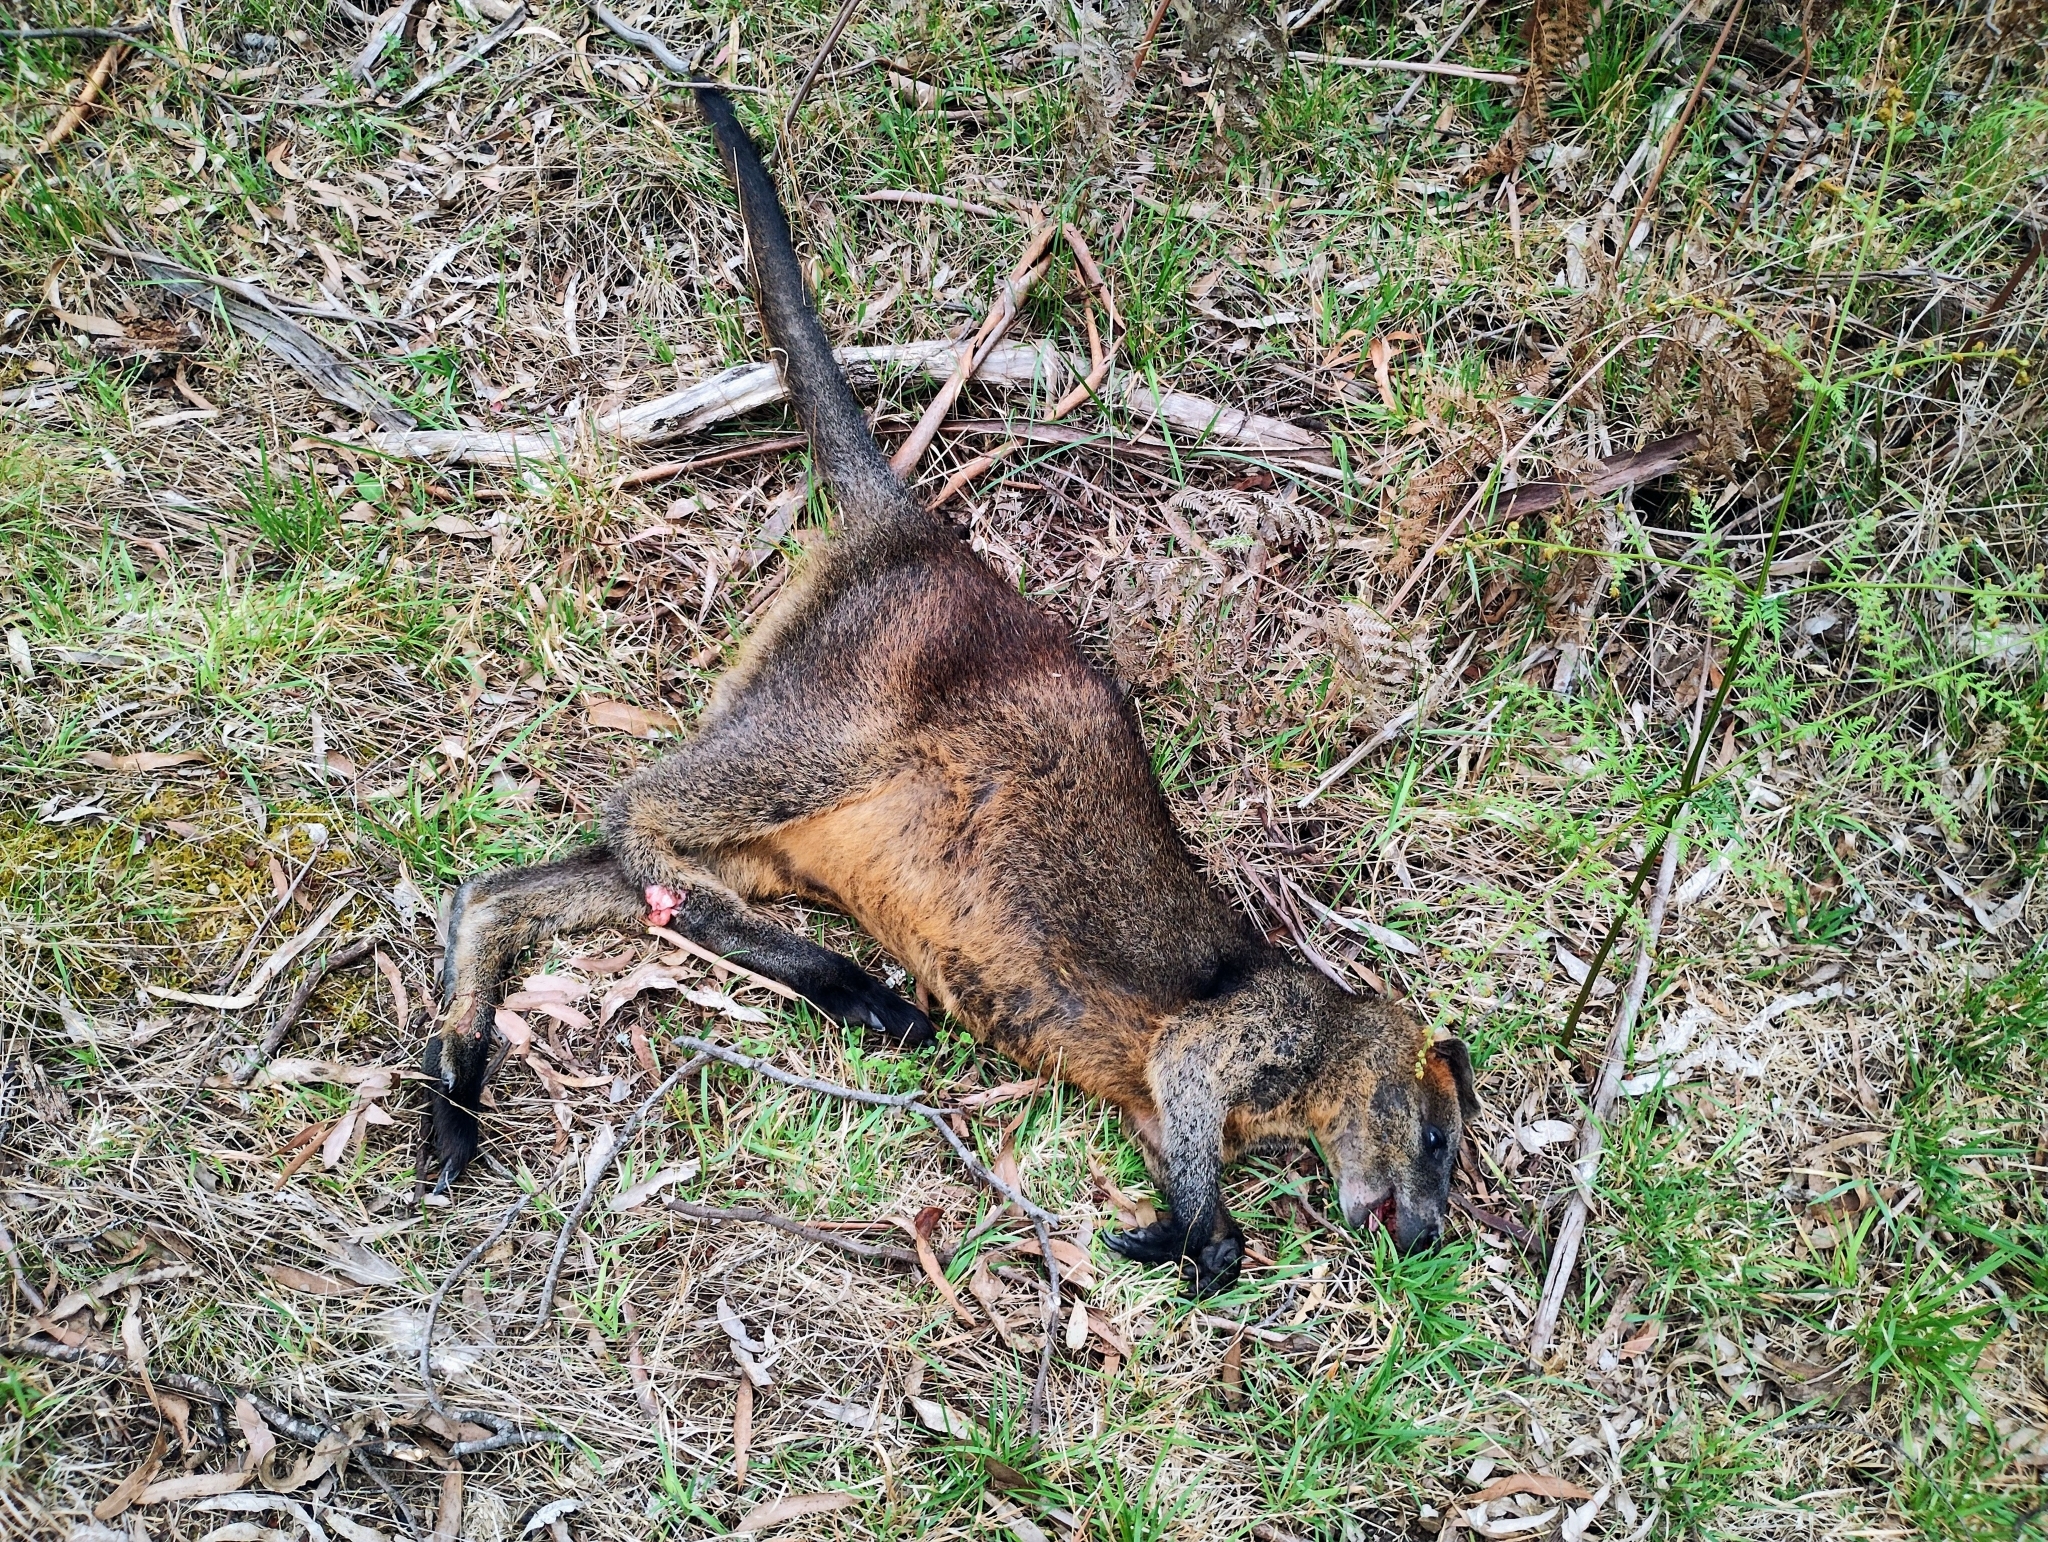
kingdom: Animalia
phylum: Chordata
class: Mammalia
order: Diprotodontia
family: Macropodidae
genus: Wallabia
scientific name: Wallabia bicolor
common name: Swamp wallaby
